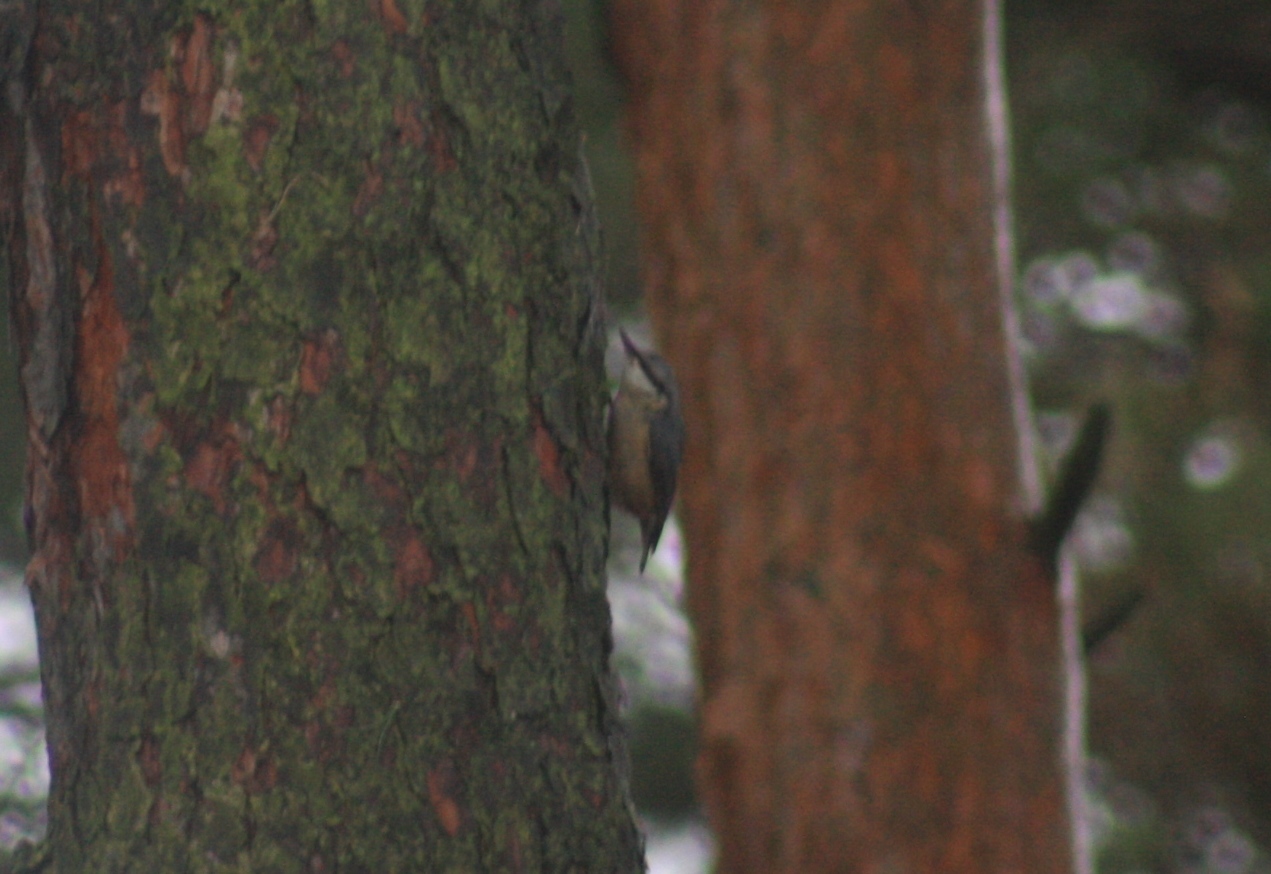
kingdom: Animalia
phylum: Chordata
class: Aves
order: Passeriformes
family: Sittidae
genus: Sitta
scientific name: Sitta europaea
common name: Eurasian nuthatch
